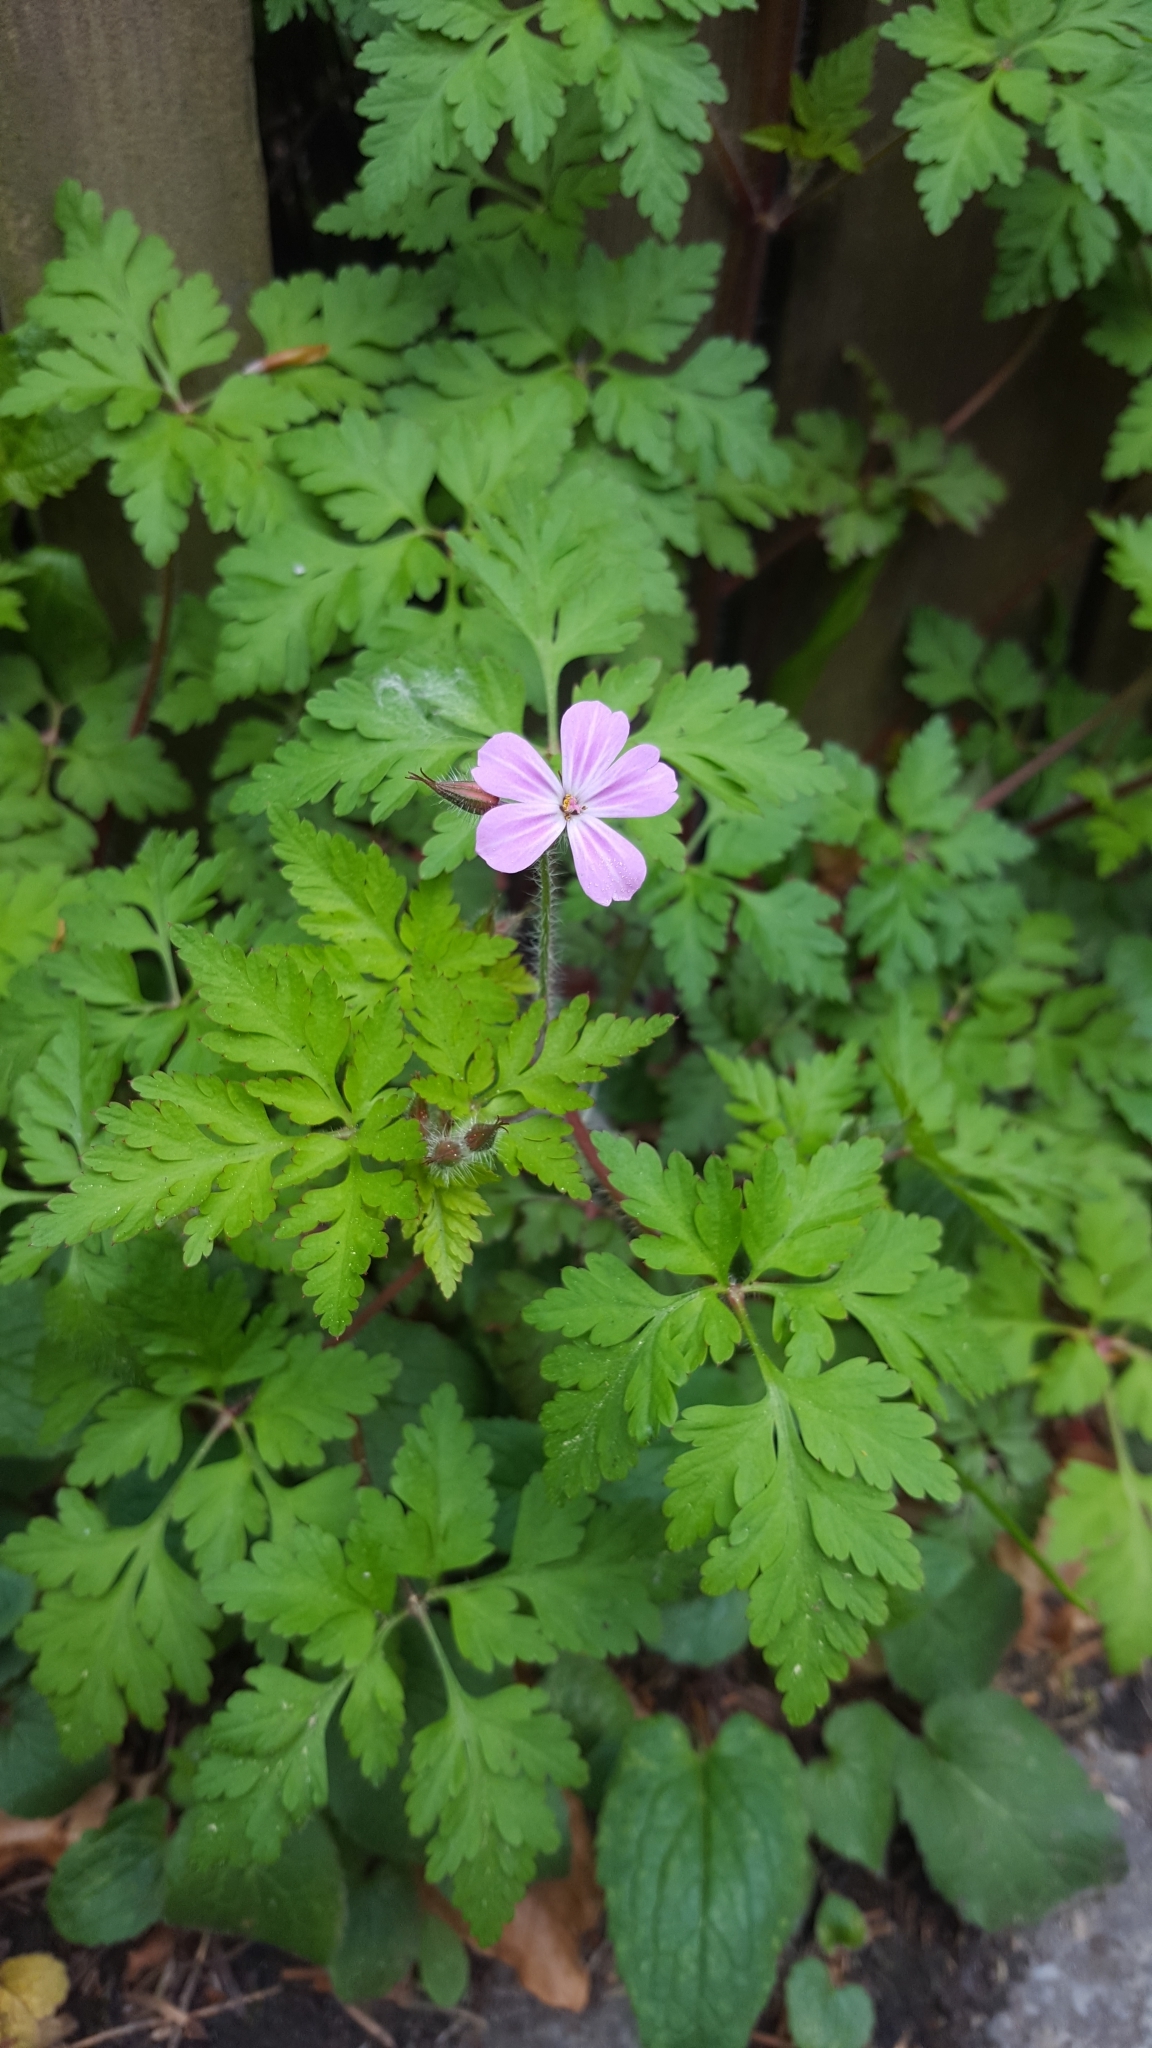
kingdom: Plantae
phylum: Tracheophyta
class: Magnoliopsida
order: Geraniales
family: Geraniaceae
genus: Geranium
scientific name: Geranium robertianum
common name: Herb-robert
